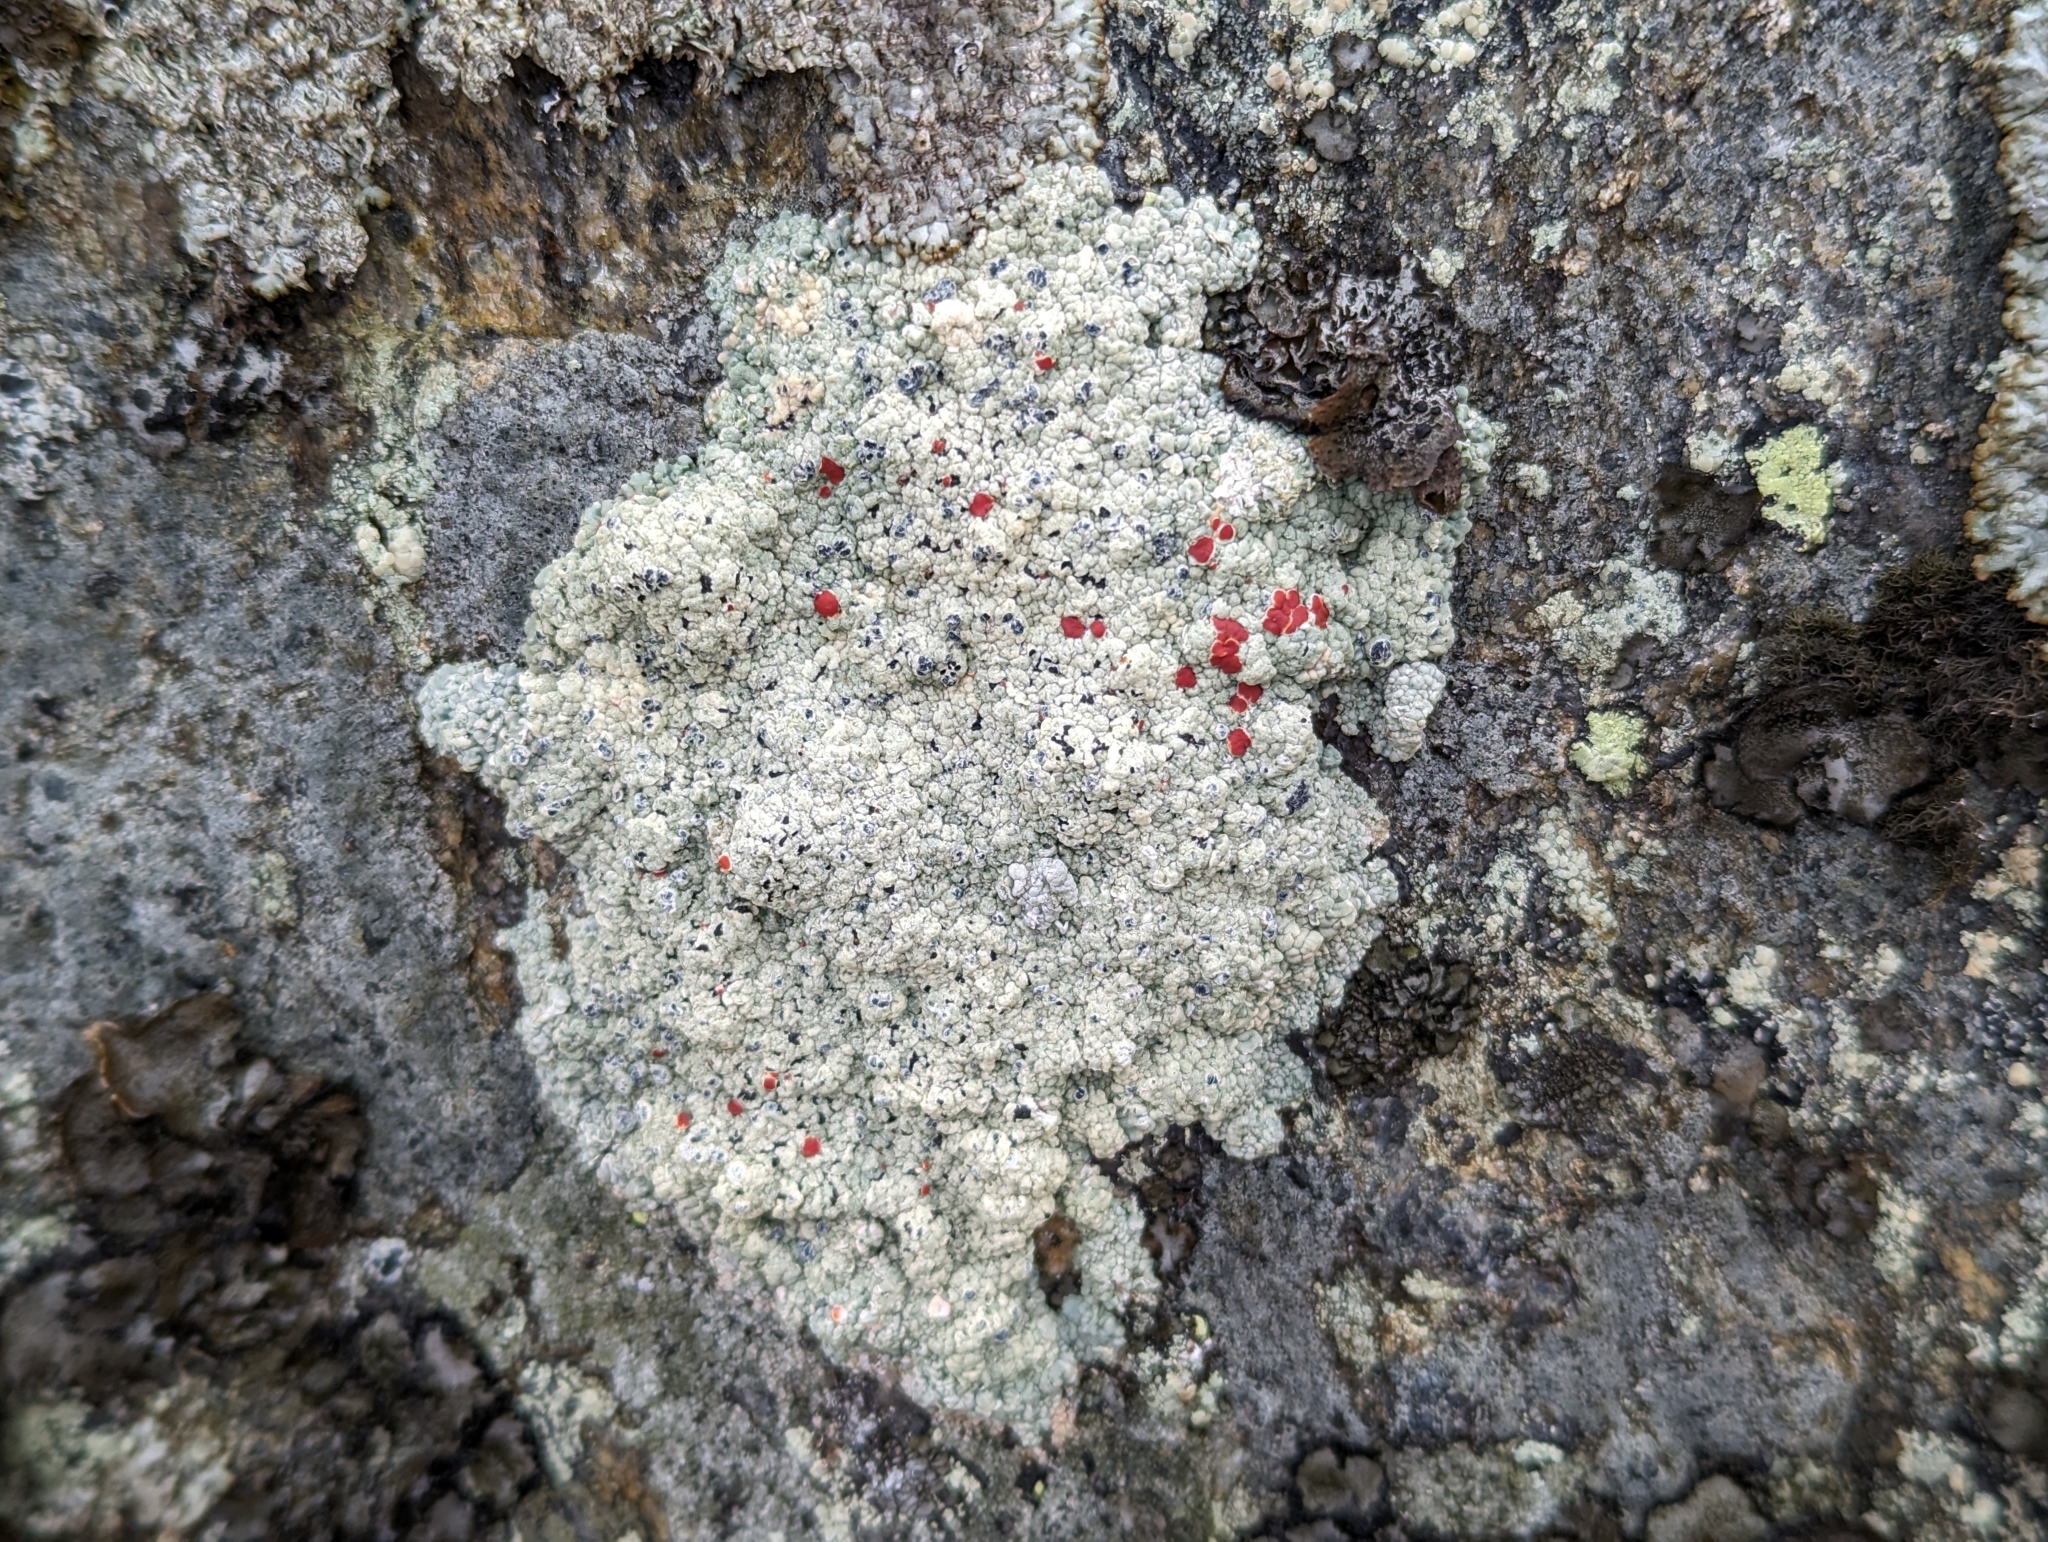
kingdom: Fungi
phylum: Ascomycota
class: Lecanoromycetes
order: Umbilicariales
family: Ophioparmaceae
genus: Ophioparma
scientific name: Ophioparma ventosa
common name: Blood-spot
